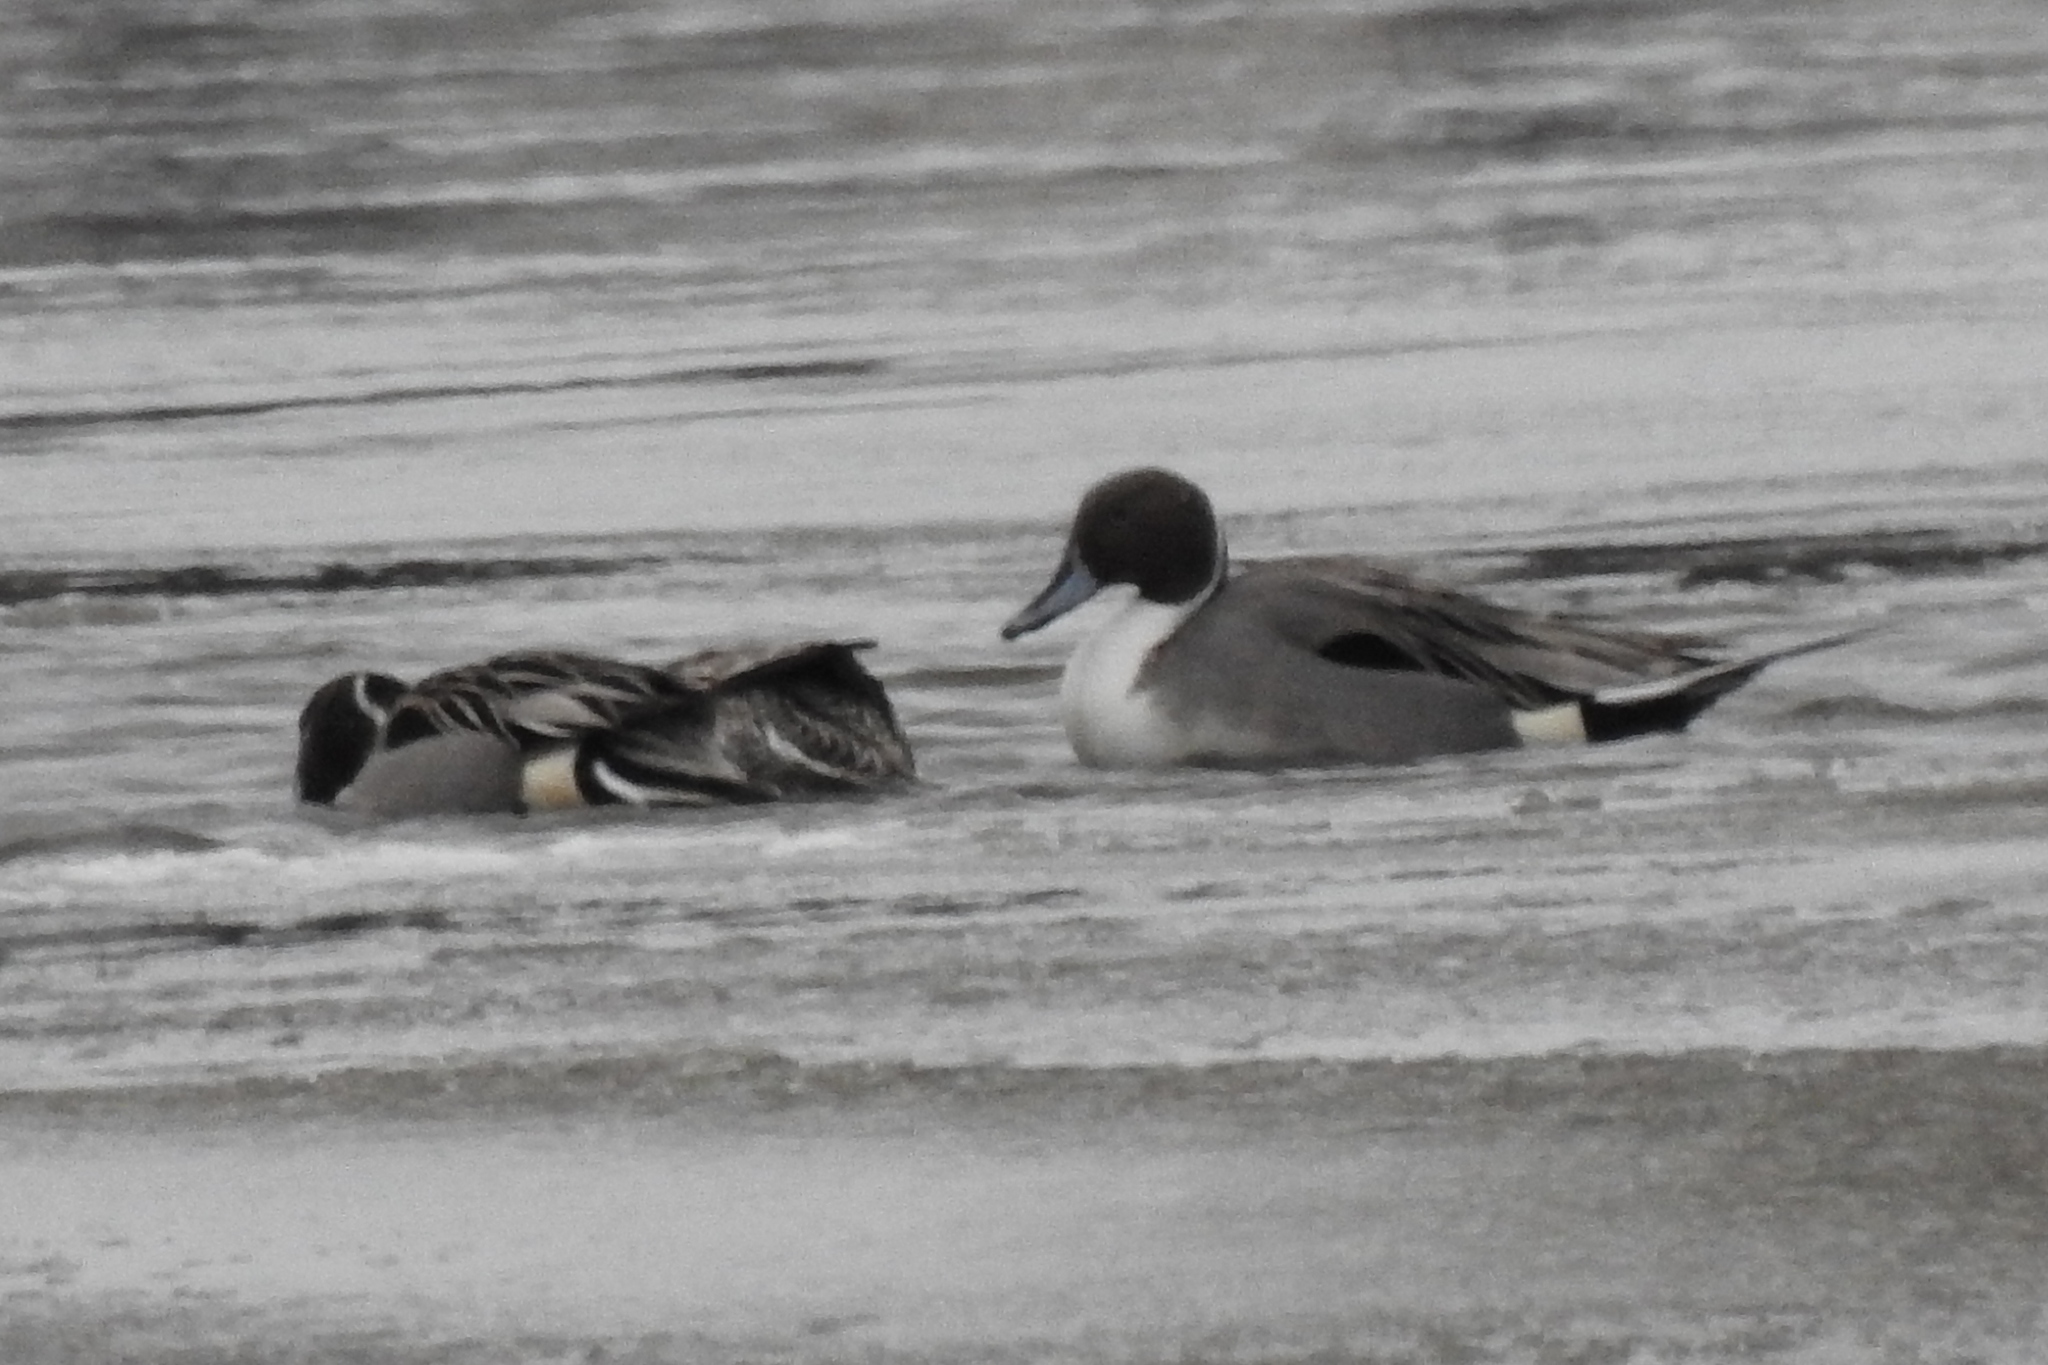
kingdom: Animalia
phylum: Chordata
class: Aves
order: Anseriformes
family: Anatidae
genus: Anas
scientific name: Anas acuta
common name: Northern pintail
